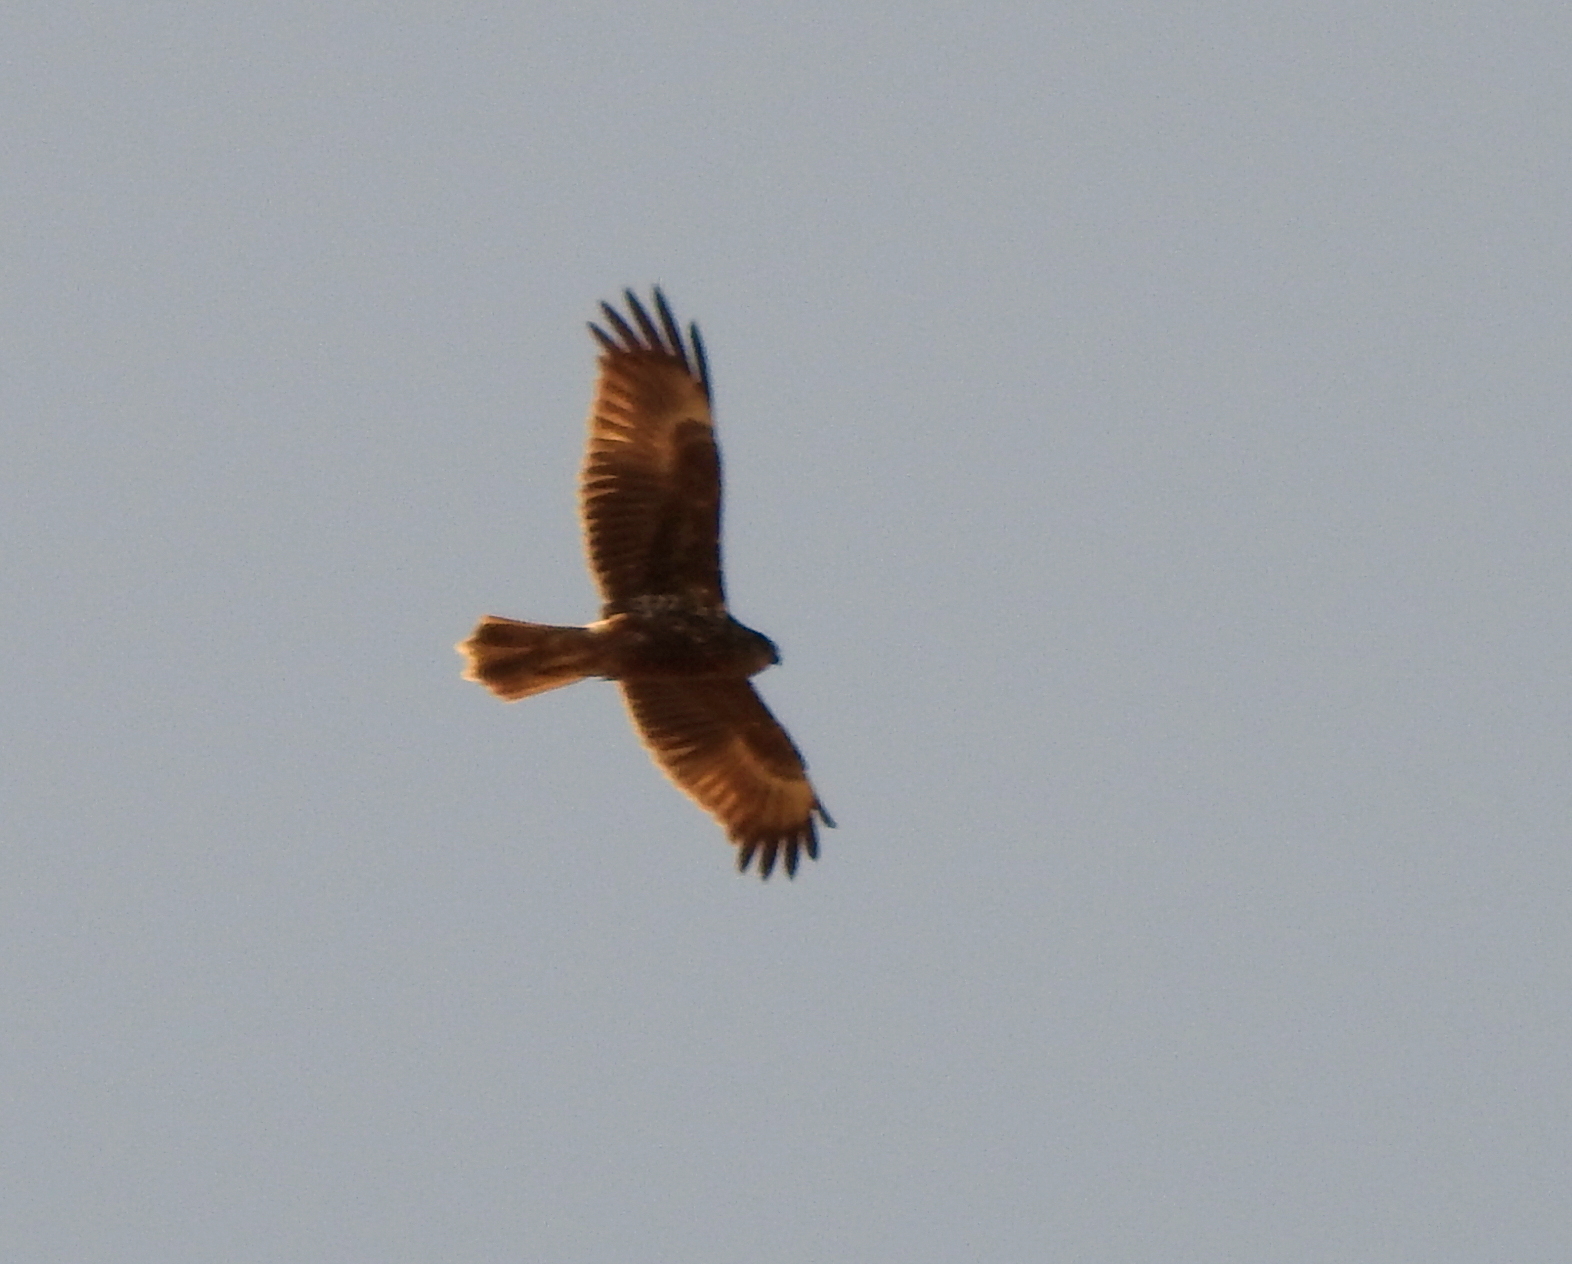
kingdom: Animalia
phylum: Chordata
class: Aves
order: Accipitriformes
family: Accipitridae
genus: Circus
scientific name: Circus spilonotus
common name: Eastern marsh-harrier
